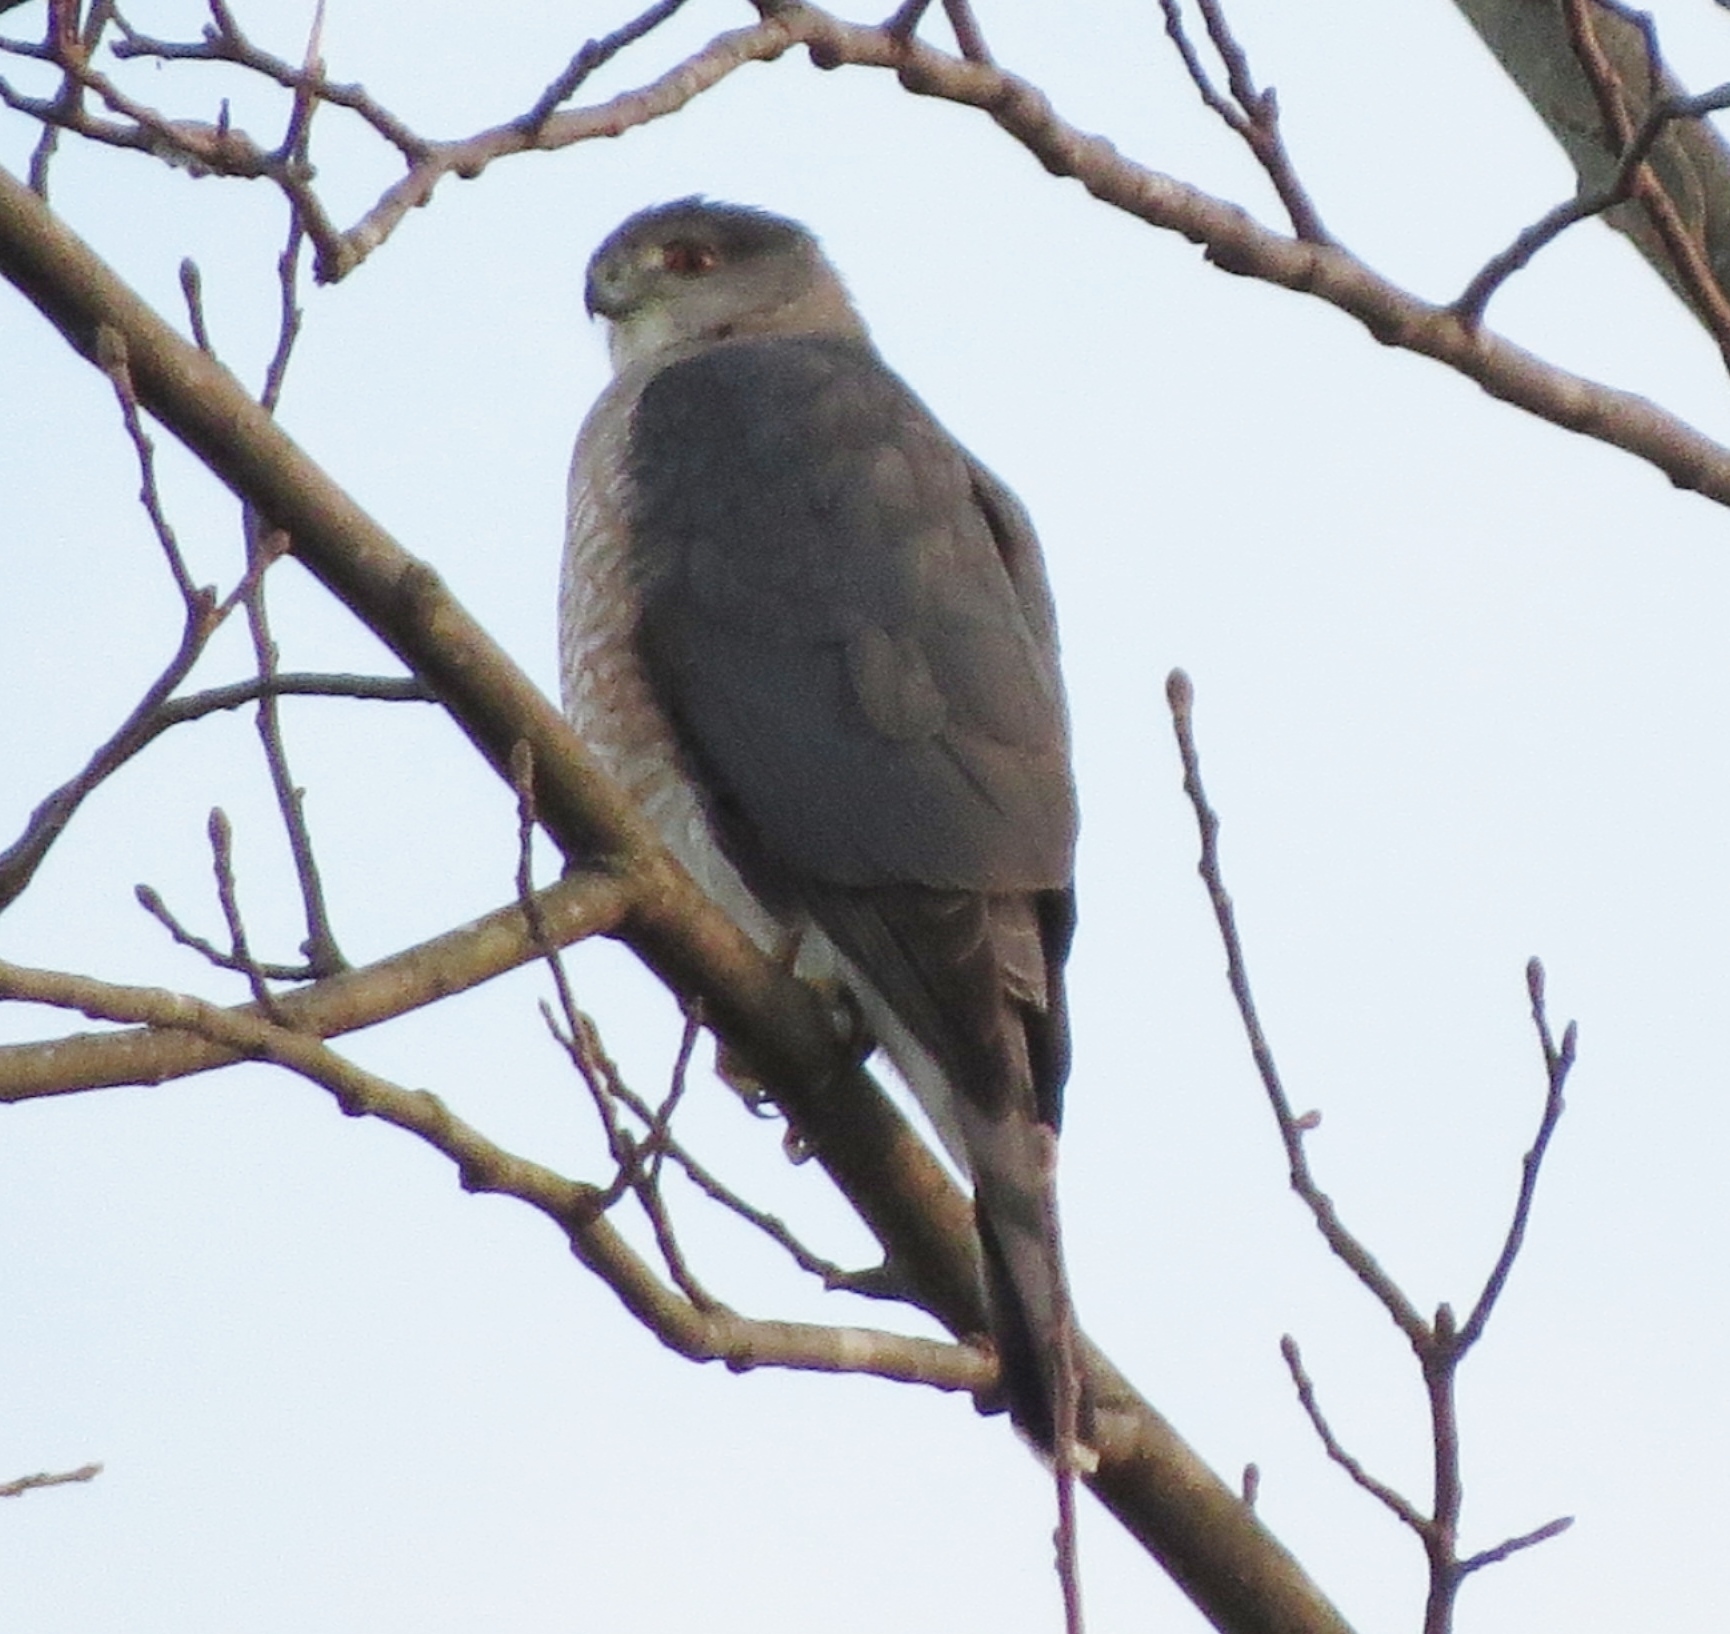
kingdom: Animalia
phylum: Chordata
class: Aves
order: Accipitriformes
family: Accipitridae
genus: Accipiter
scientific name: Accipiter cooperii
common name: Cooper's hawk
